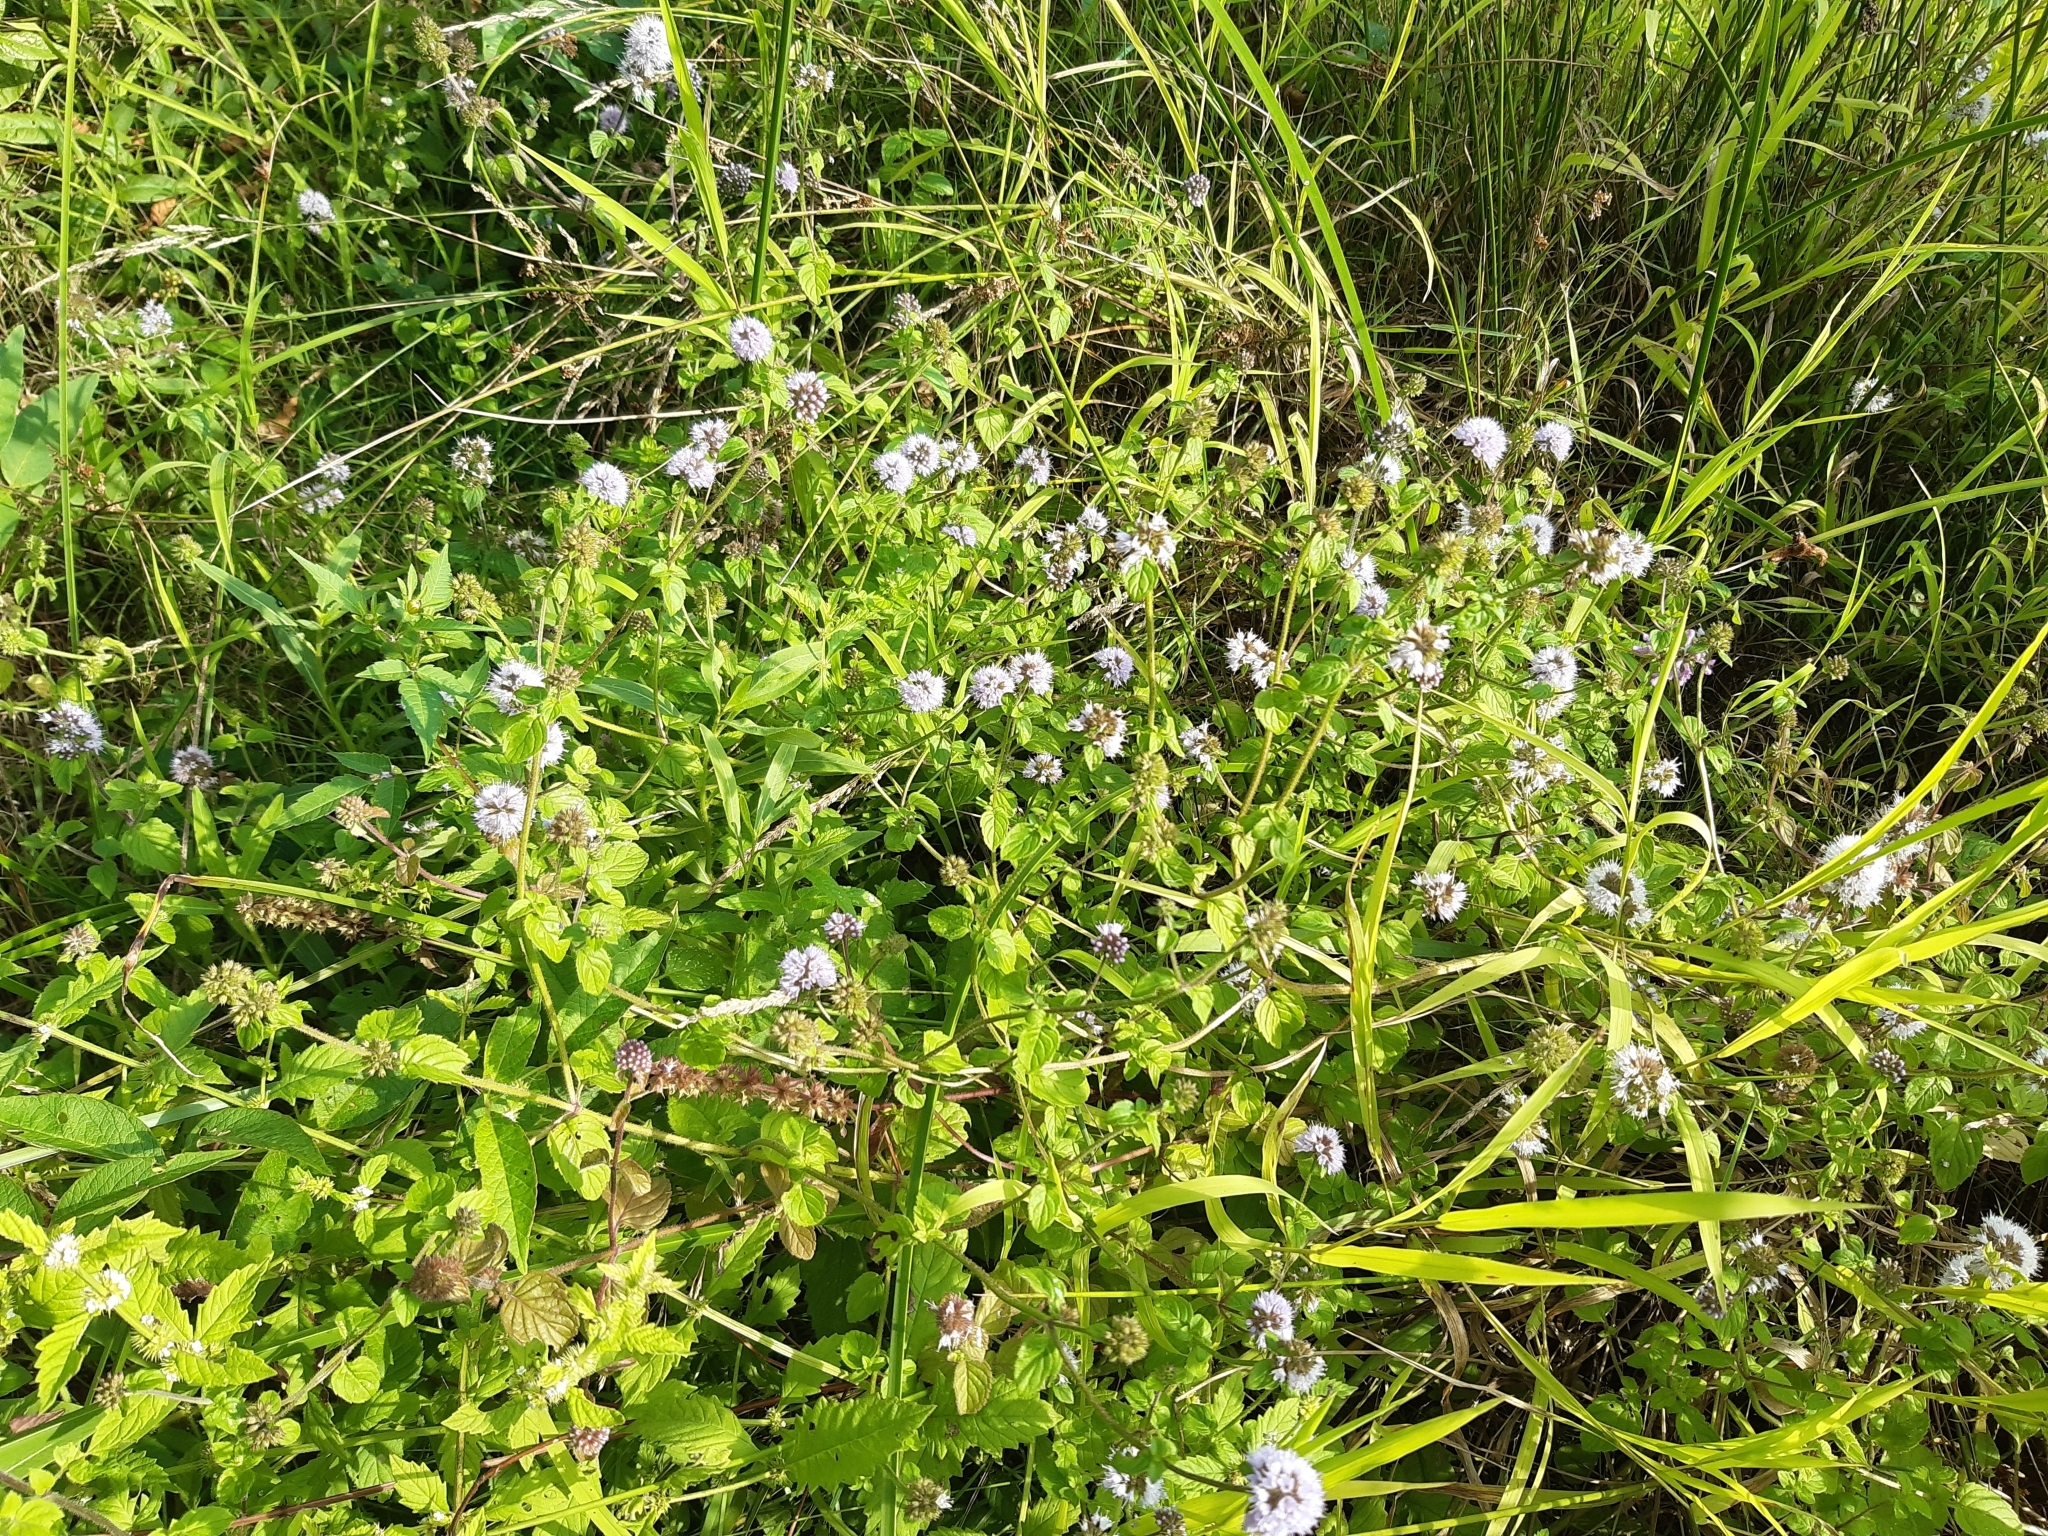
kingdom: Plantae
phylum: Tracheophyta
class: Magnoliopsida
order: Lamiales
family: Lamiaceae
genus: Mentha
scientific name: Mentha aquatica
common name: Water mint
